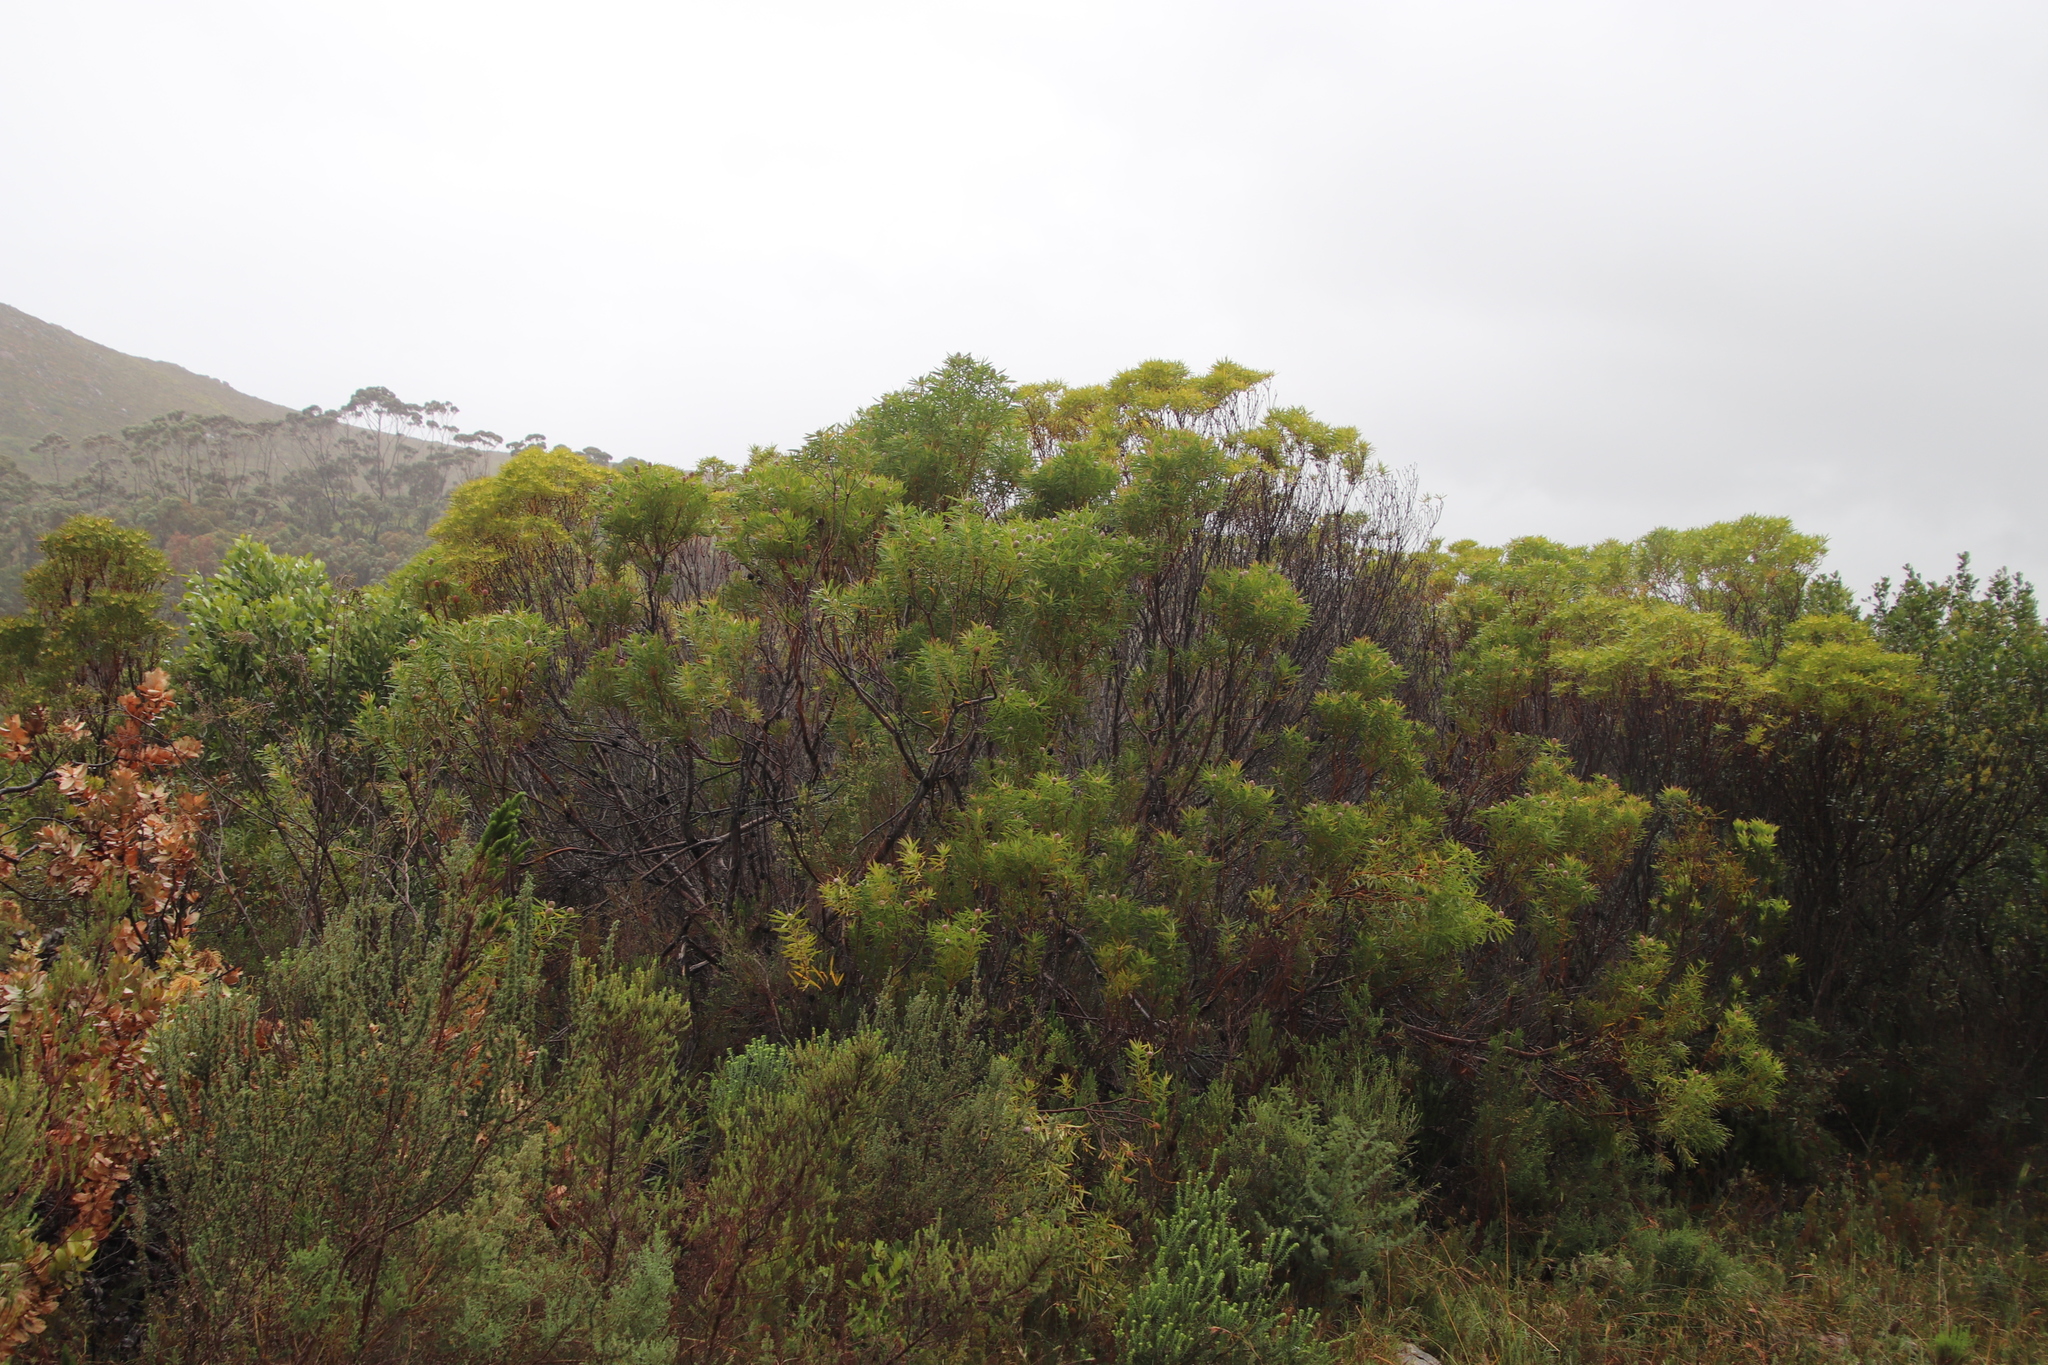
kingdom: Plantae
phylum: Tracheophyta
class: Magnoliopsida
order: Proteales
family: Proteaceae
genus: Leucadendron
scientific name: Leucadendron coniferum
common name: Dune conebush
